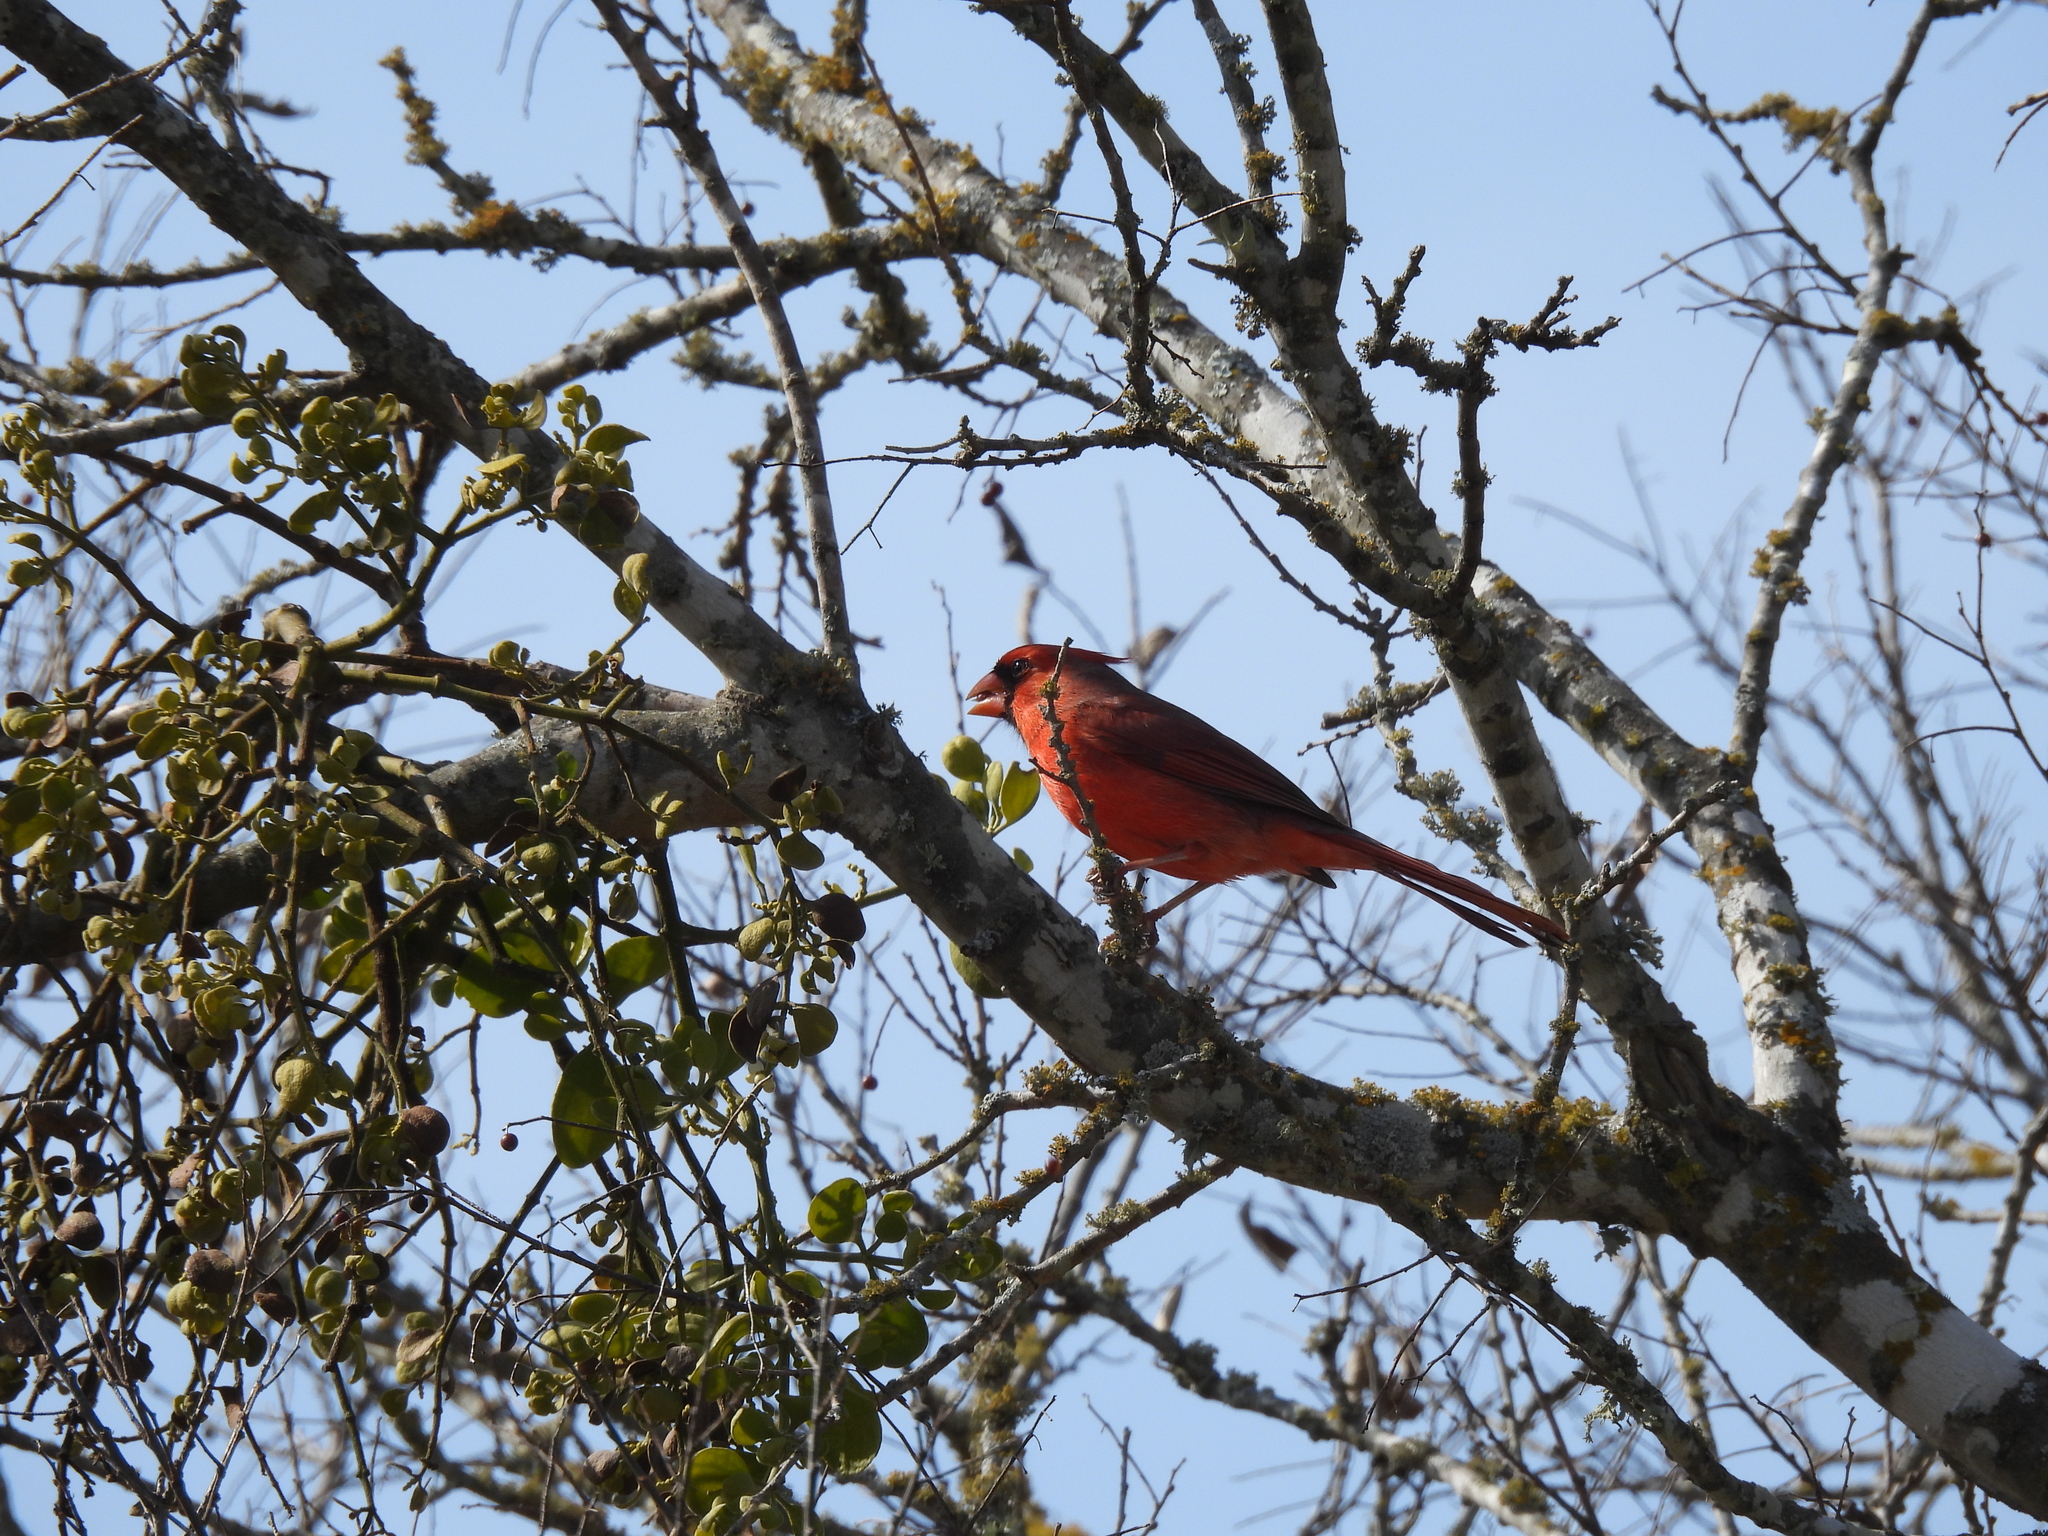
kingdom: Animalia
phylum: Chordata
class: Aves
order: Passeriformes
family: Cardinalidae
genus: Cardinalis
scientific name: Cardinalis cardinalis
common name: Northern cardinal
